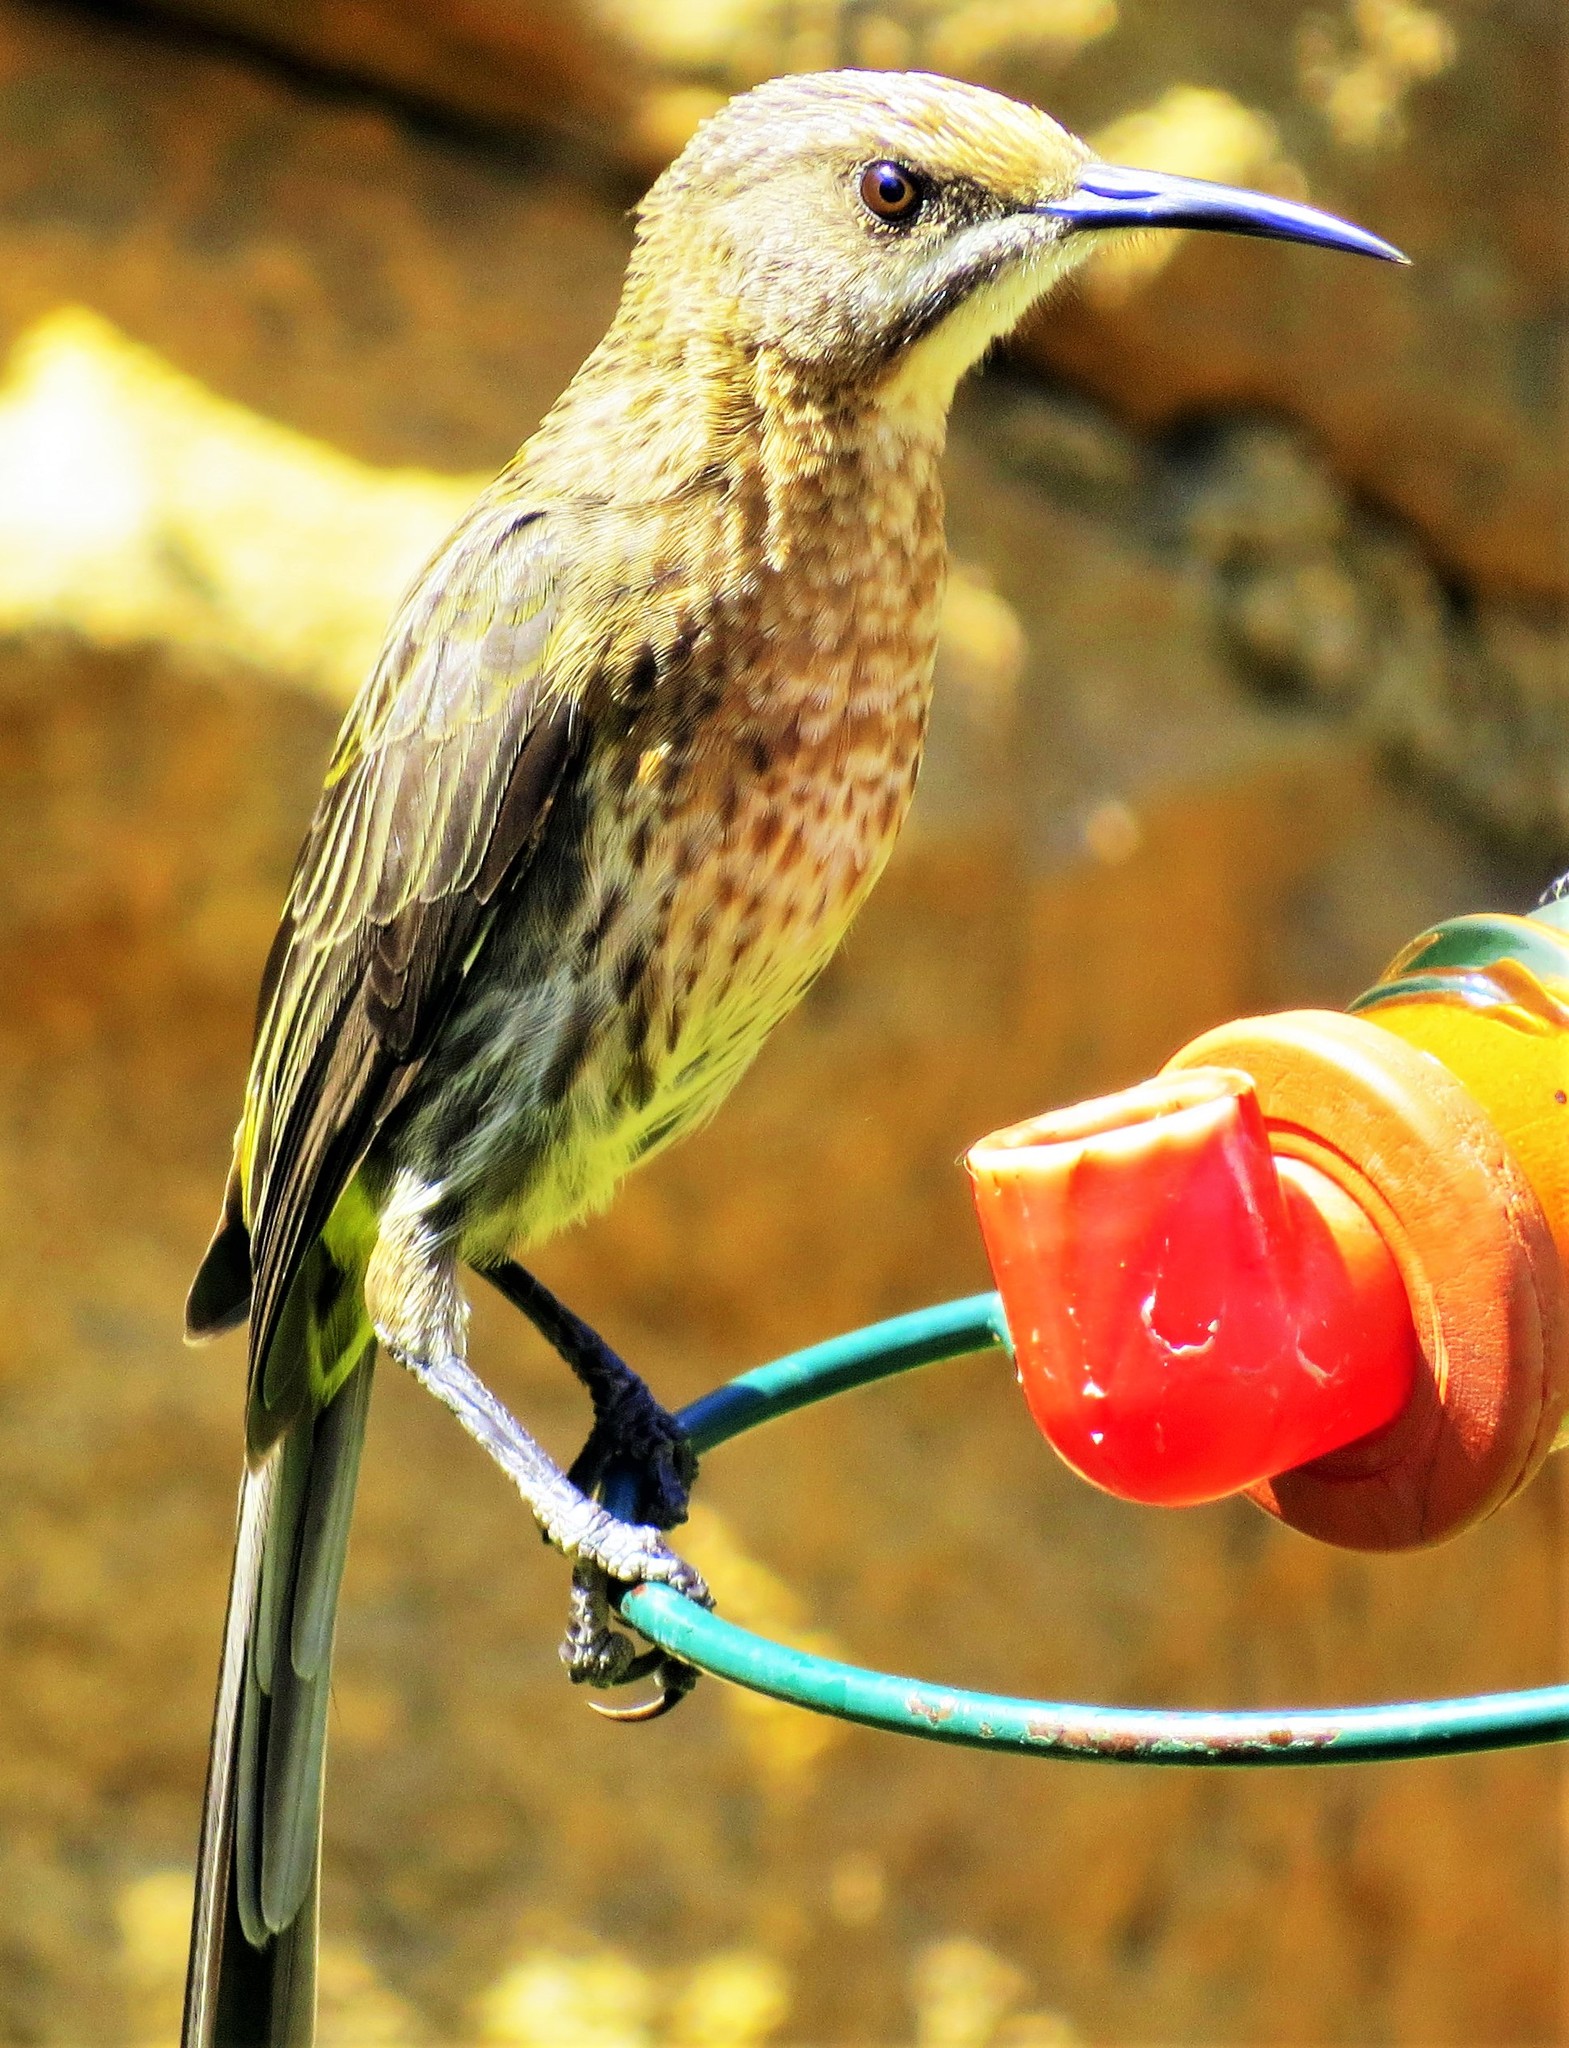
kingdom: Animalia
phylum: Chordata
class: Aves
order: Passeriformes
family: Promeropidae
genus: Promerops
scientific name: Promerops cafer
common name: Cape sugarbird
